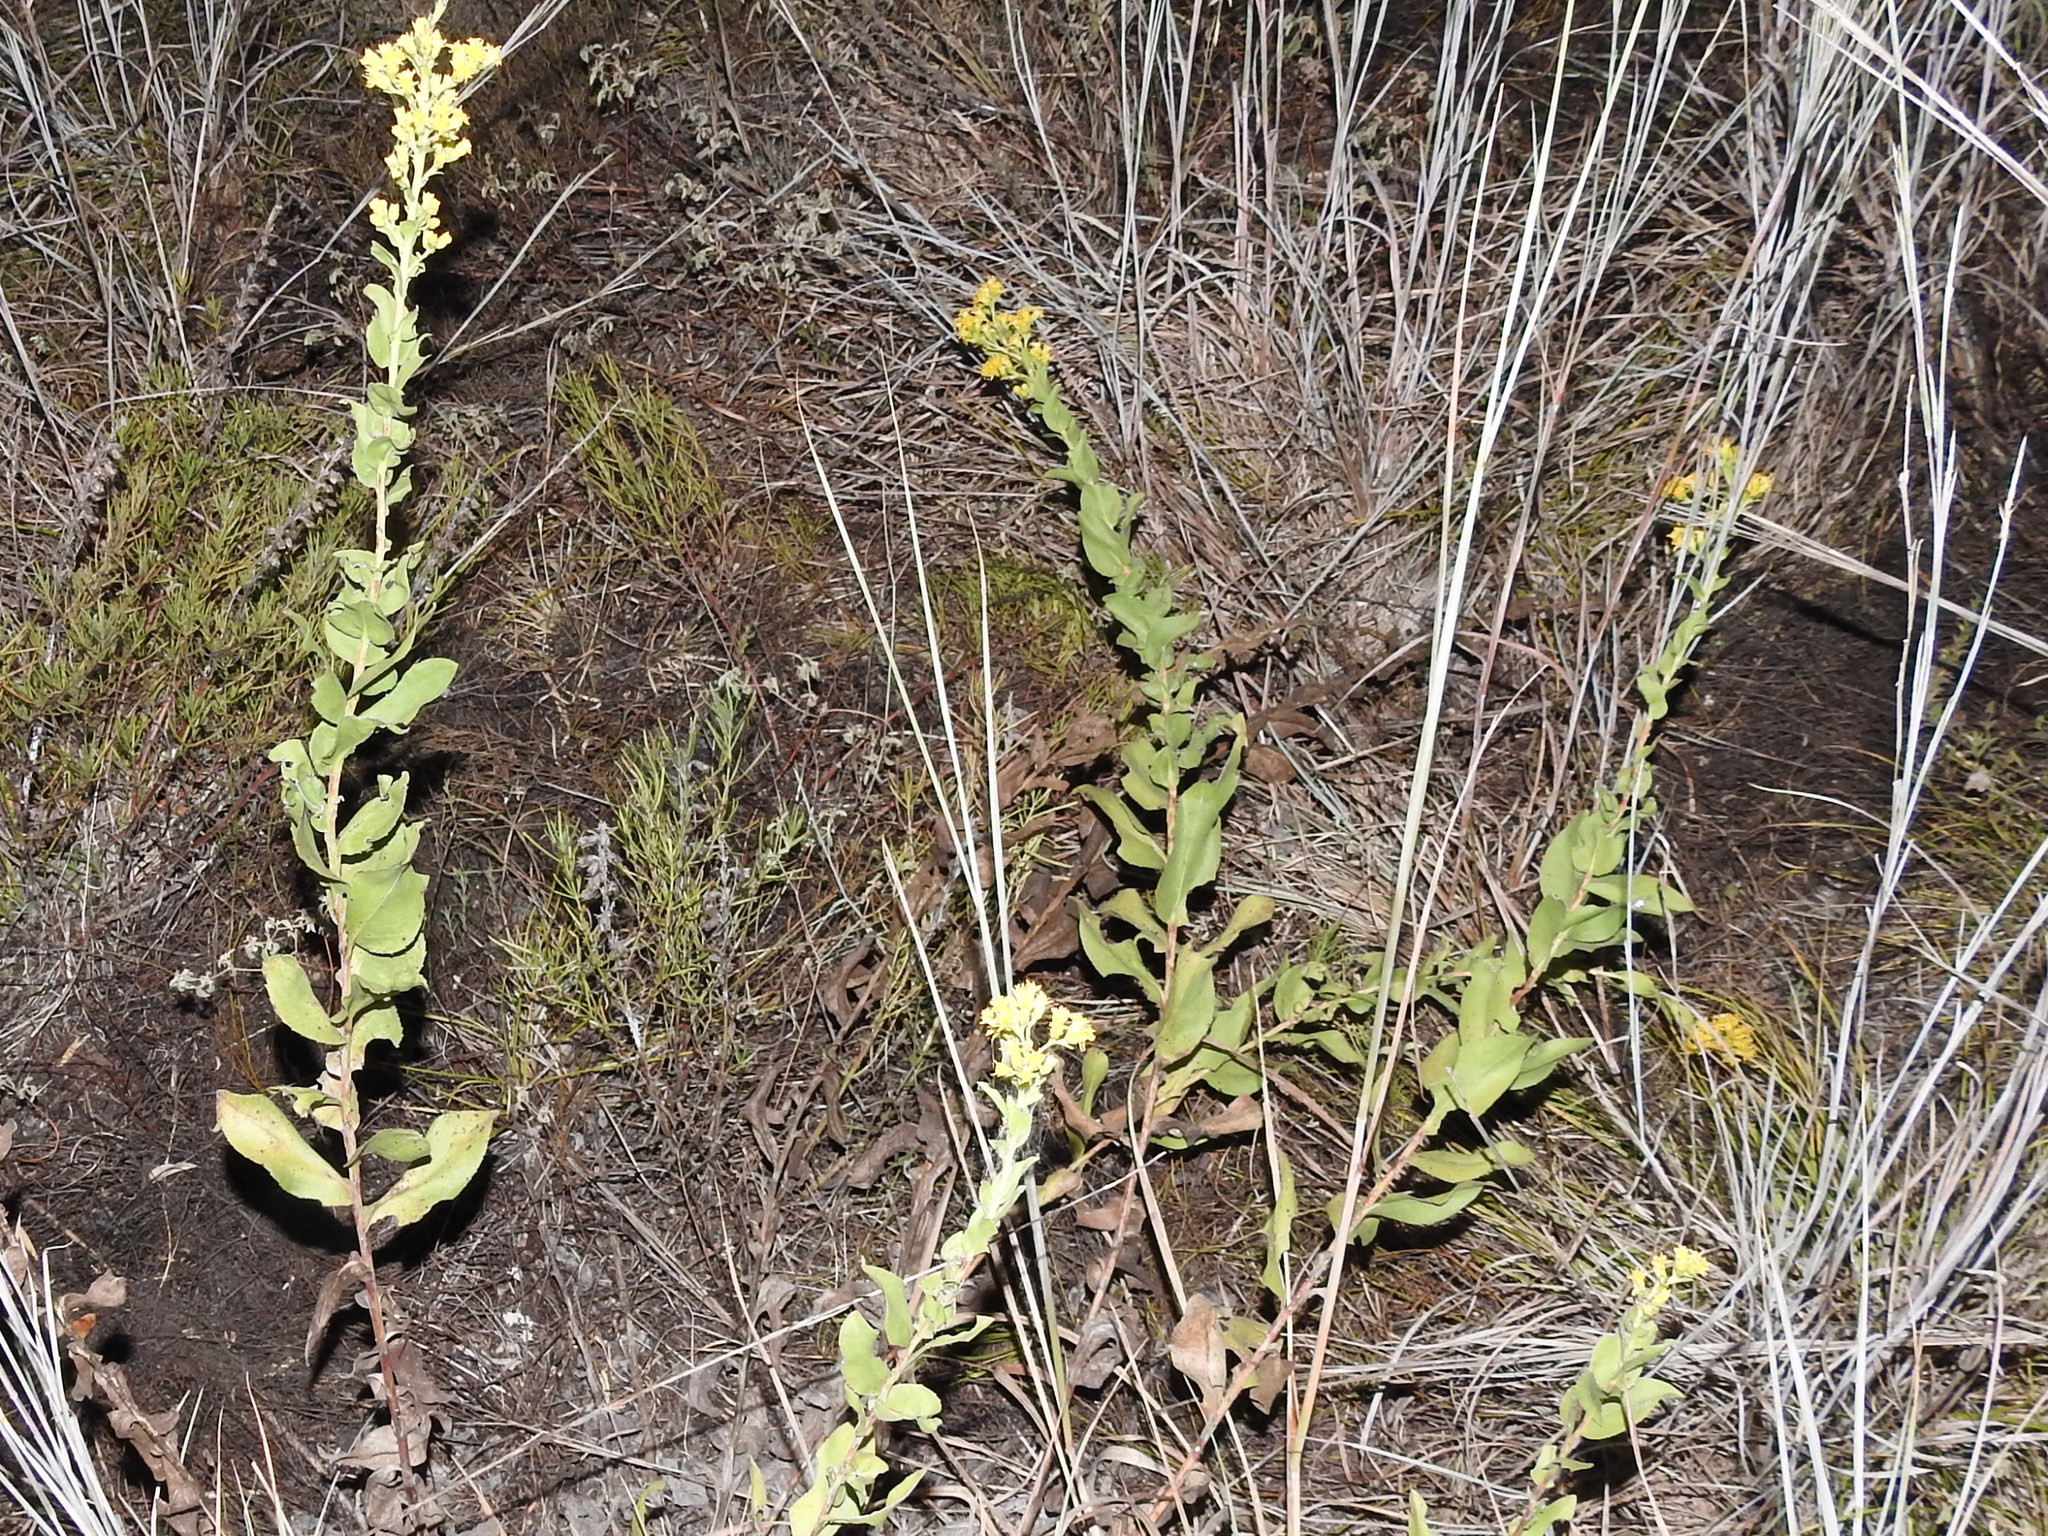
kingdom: Plantae
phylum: Tracheophyta
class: Magnoliopsida
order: Asterales
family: Asteraceae
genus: Solidago
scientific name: Solidago rigida
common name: Rigid goldenrod
